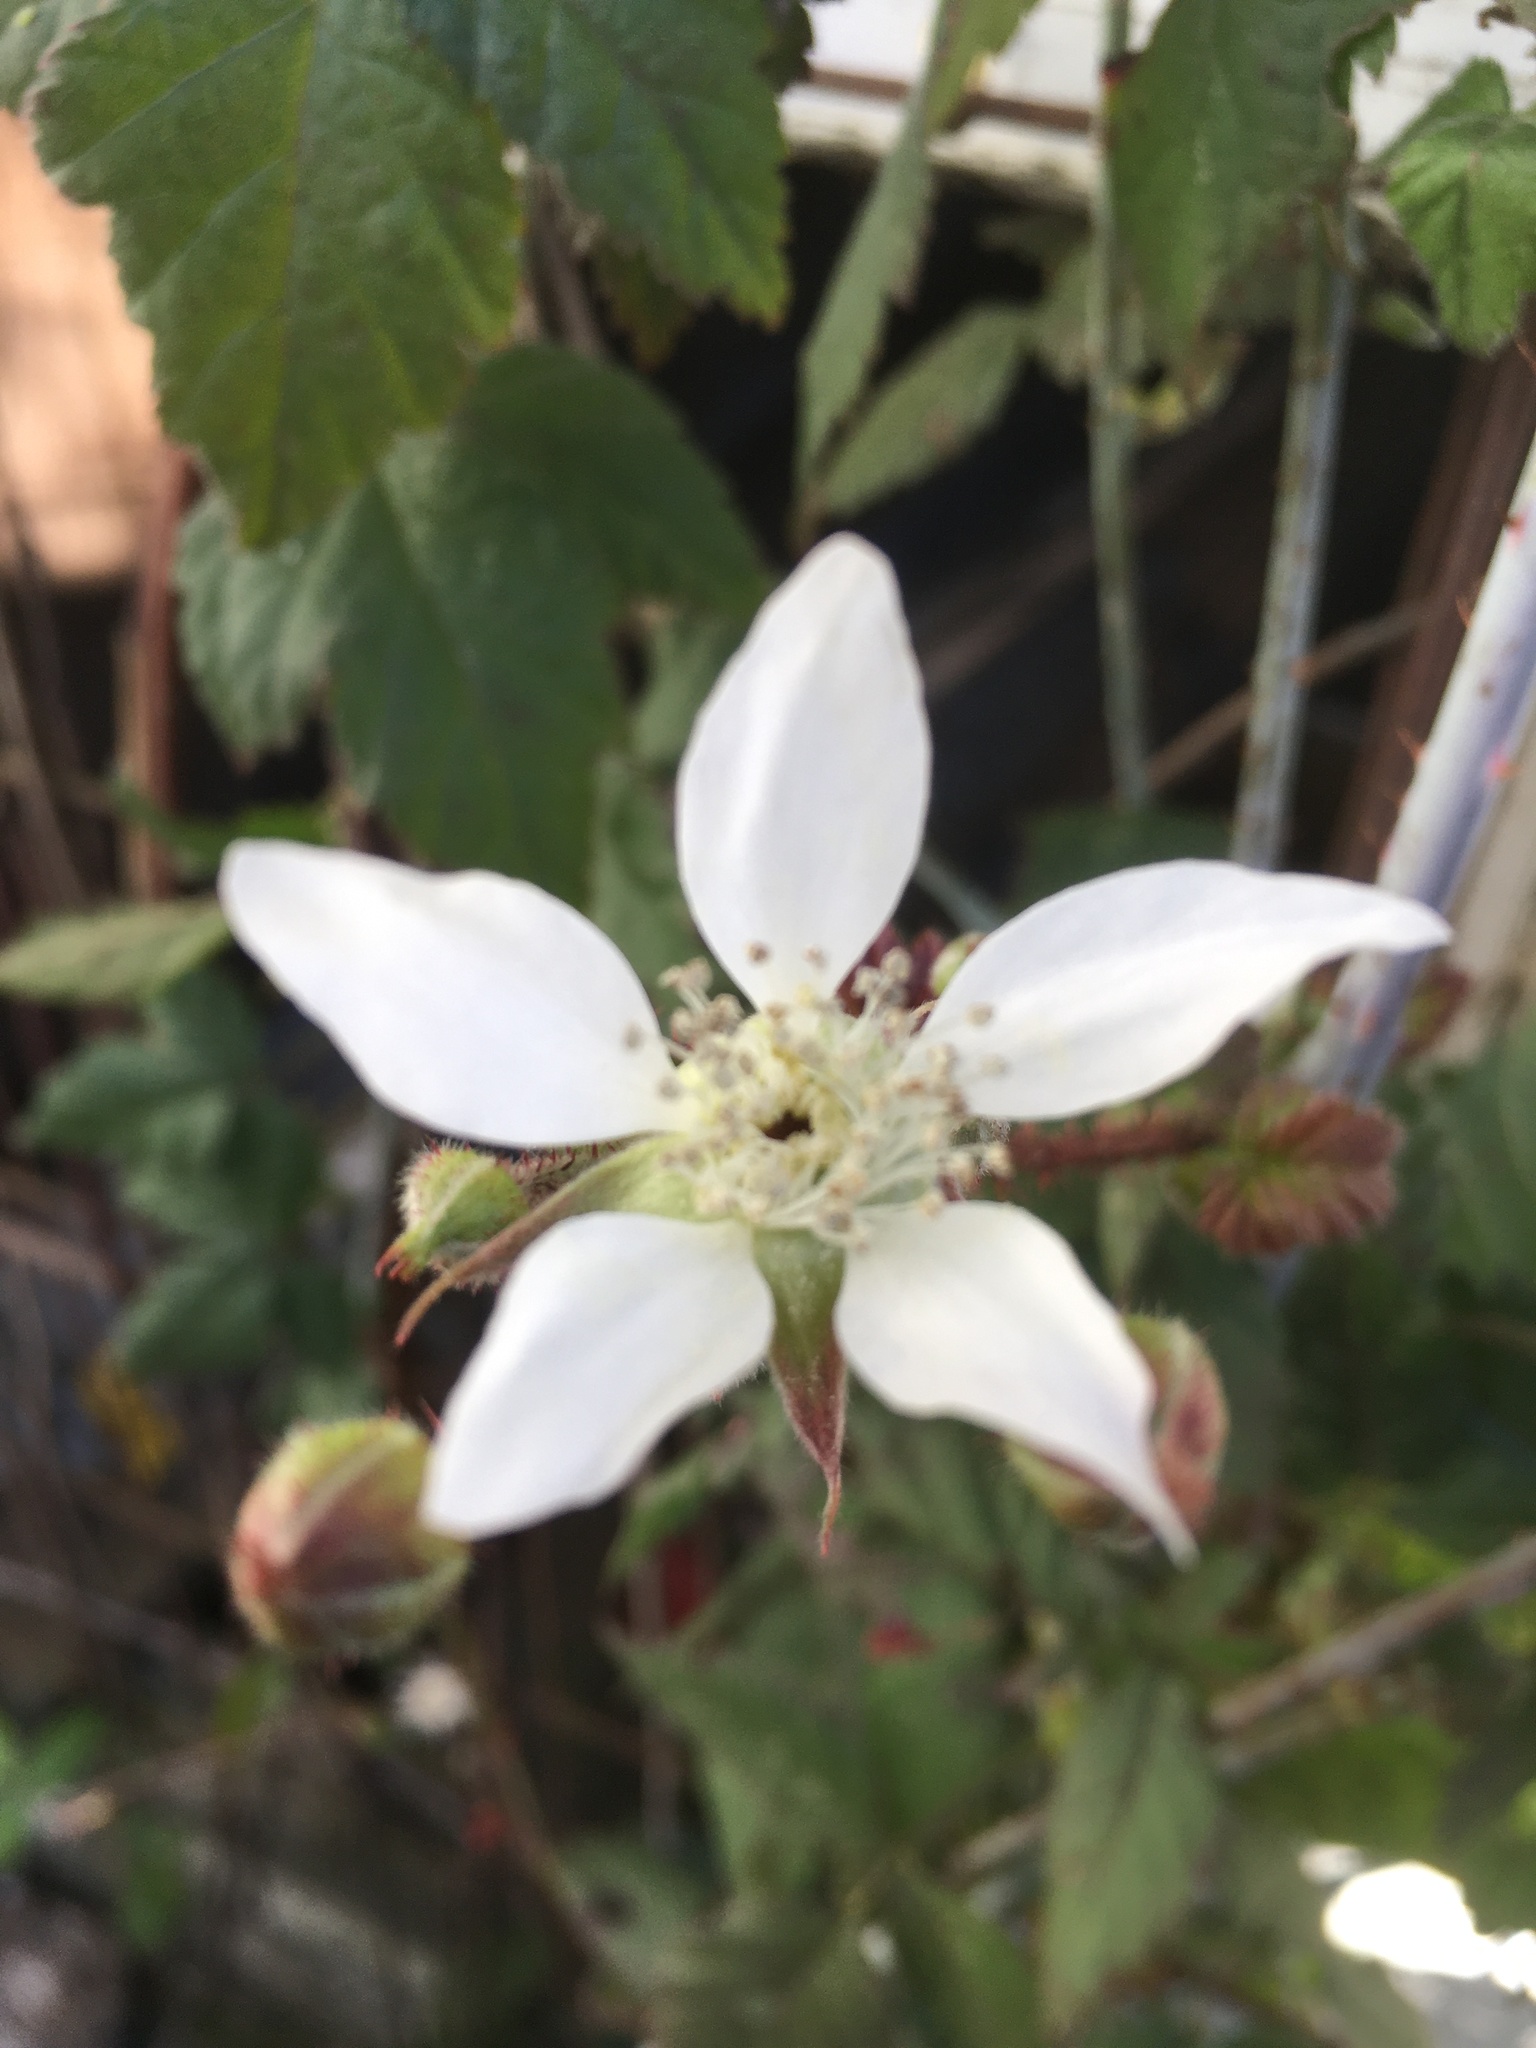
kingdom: Plantae
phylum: Tracheophyta
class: Magnoliopsida
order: Rosales
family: Rosaceae
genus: Rubus
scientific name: Rubus ursinus
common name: Pacific blackberry
